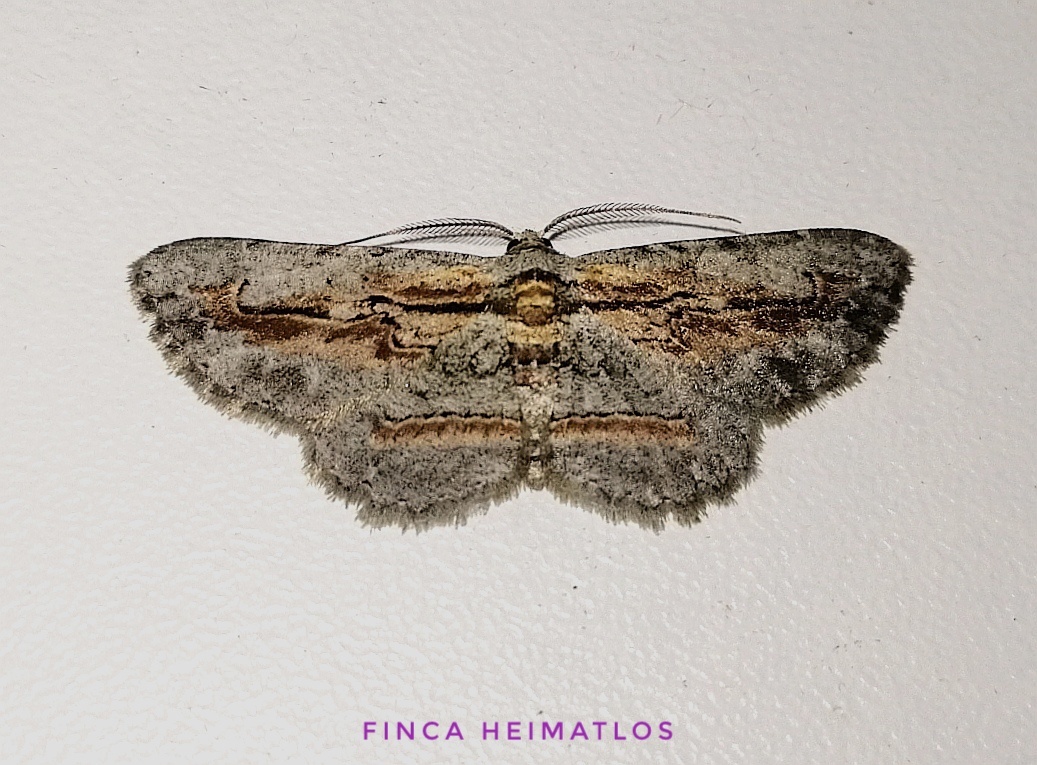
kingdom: Animalia
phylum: Arthropoda
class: Insecta
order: Lepidoptera
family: Geometridae
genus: Odysia
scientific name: Odysia
